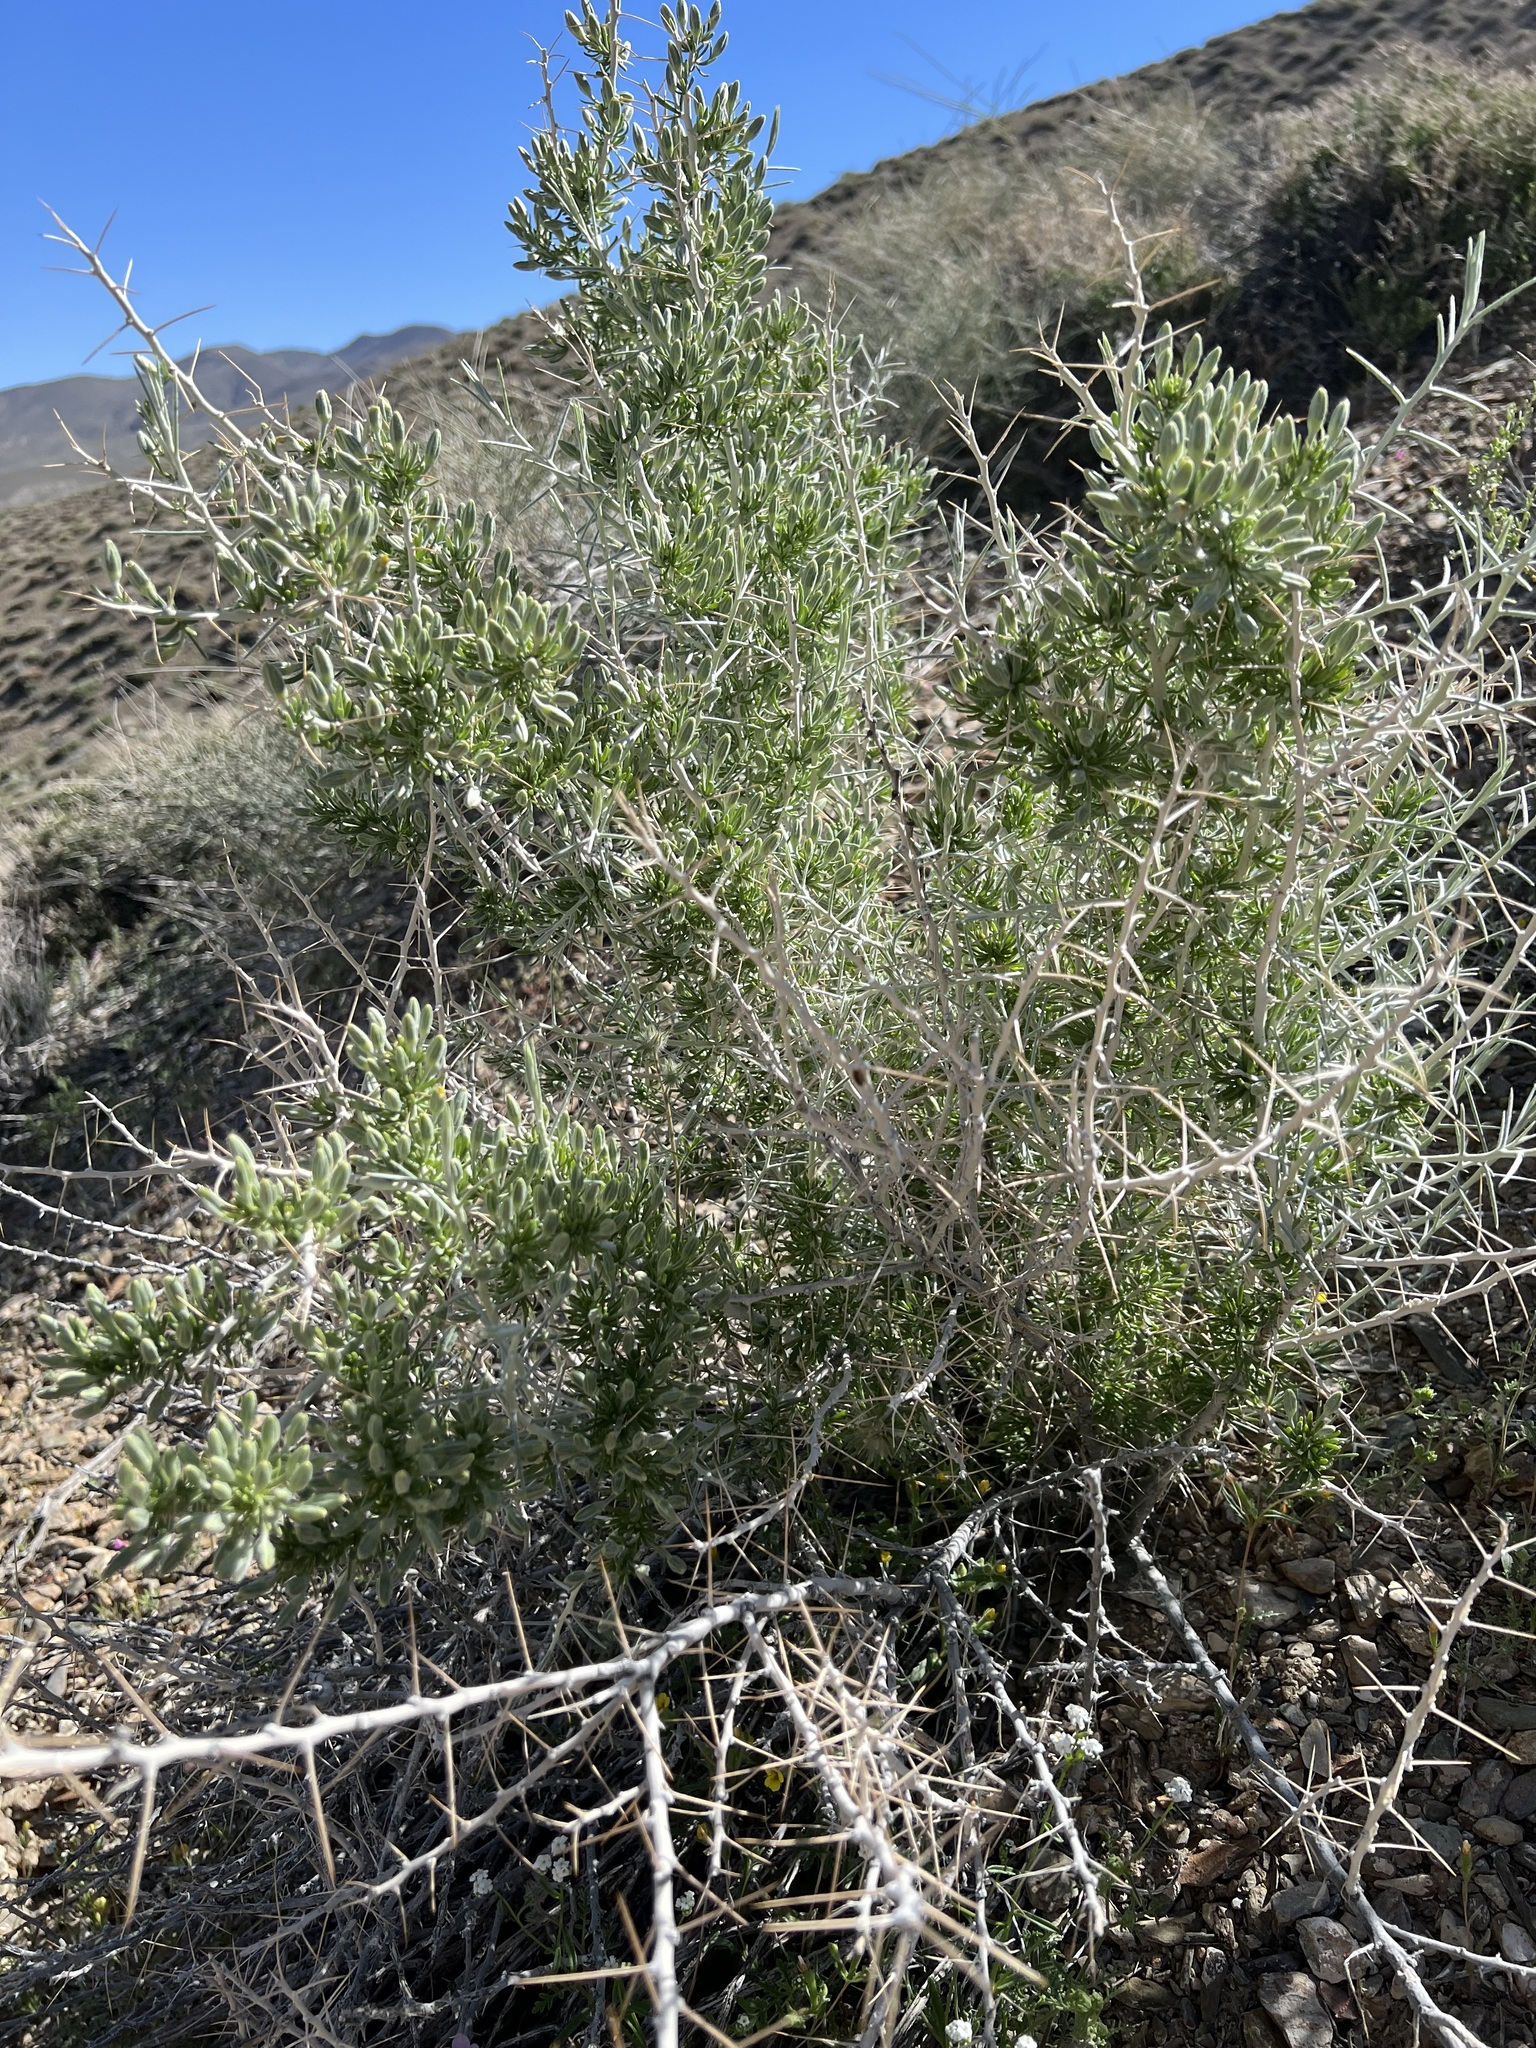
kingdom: Plantae
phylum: Tracheophyta
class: Magnoliopsida
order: Asterales
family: Asteraceae
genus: Tetradymia
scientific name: Tetradymia axillaris
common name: Long-spine horsebrush
